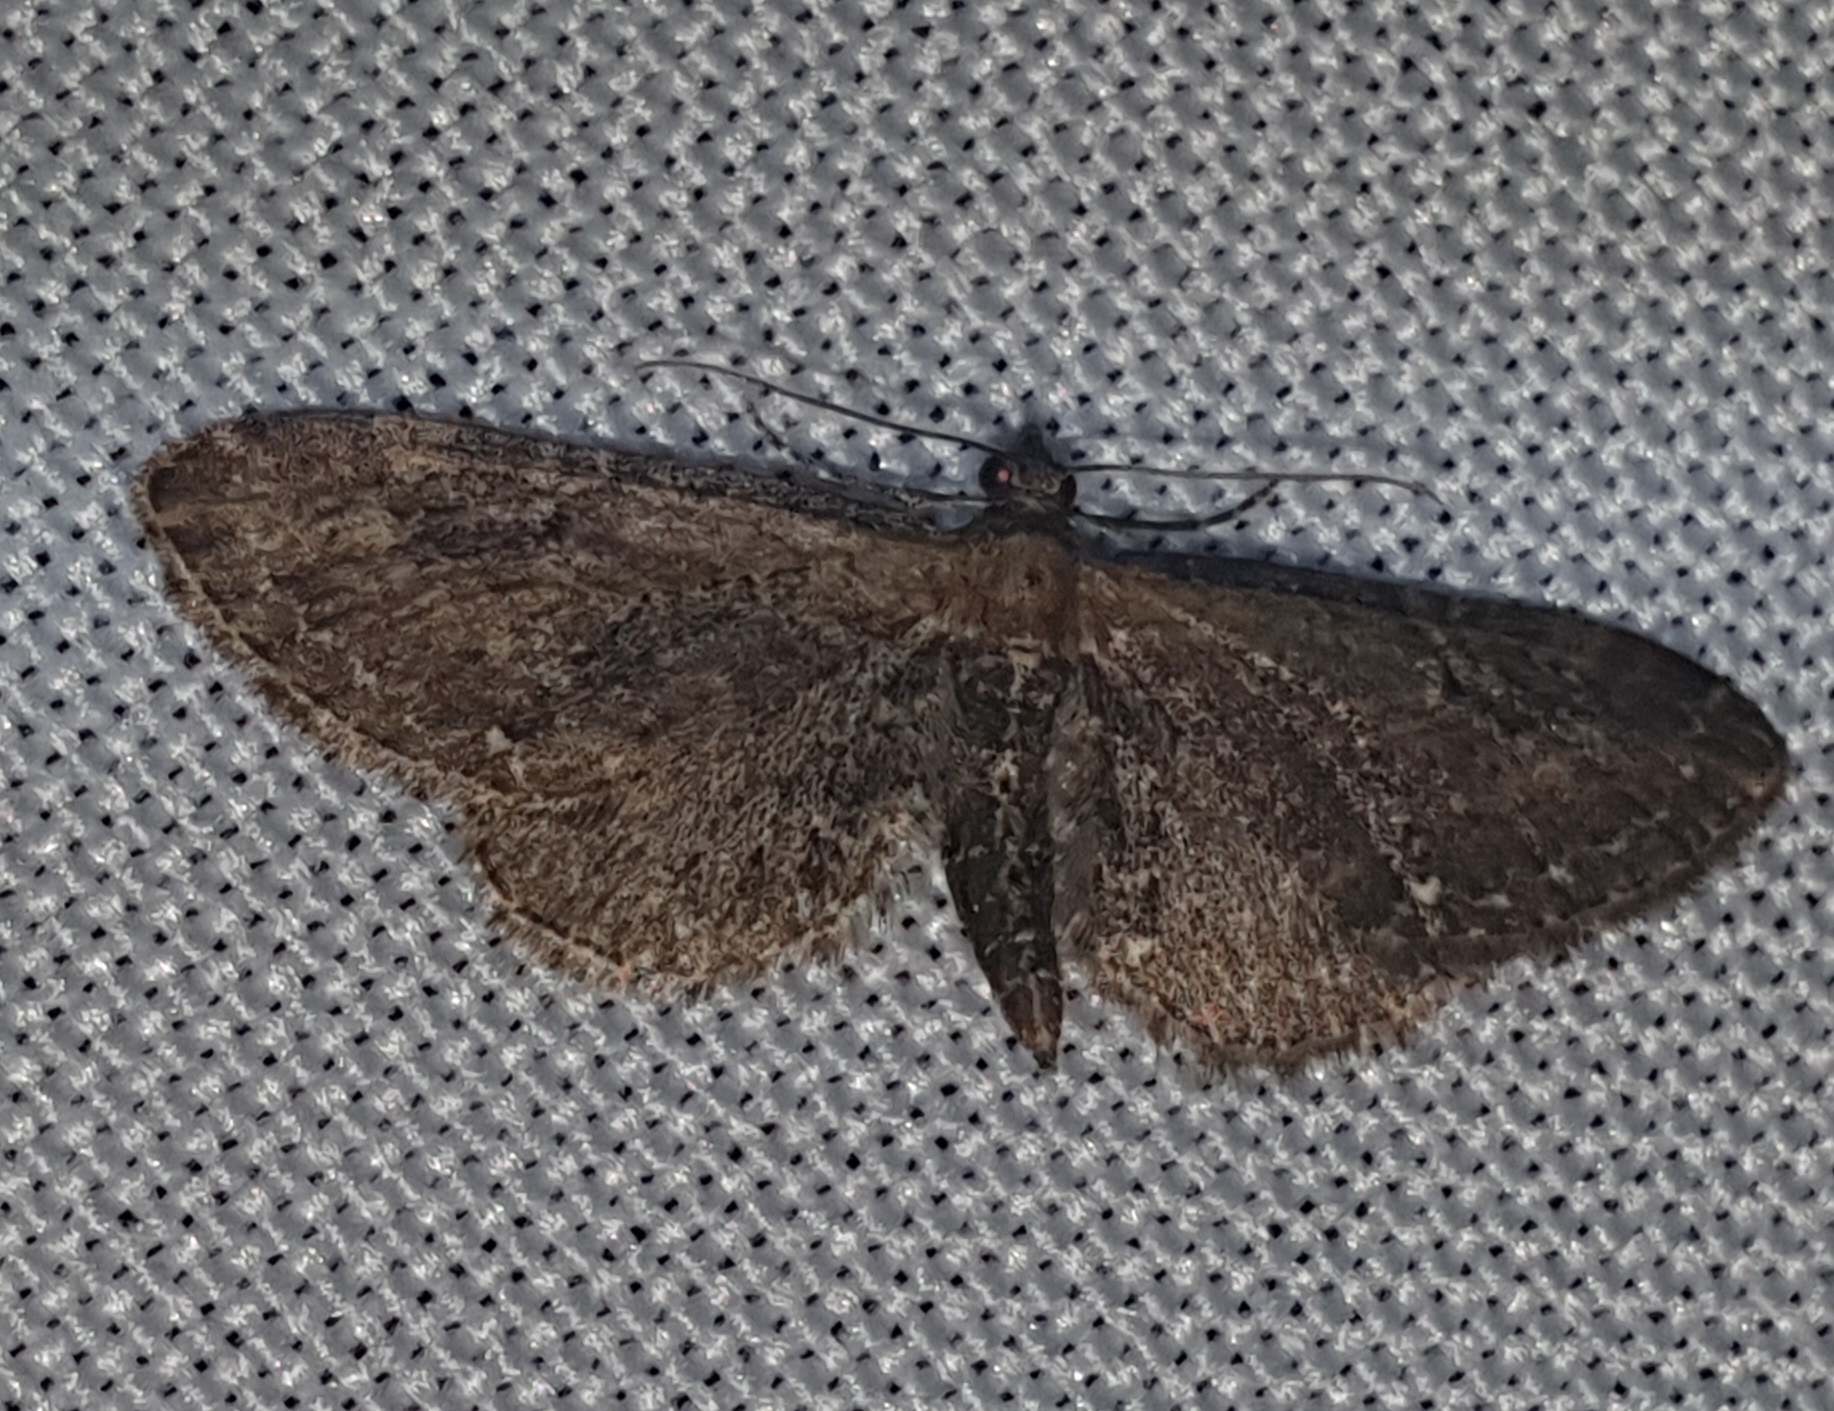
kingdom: Animalia
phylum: Arthropoda
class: Insecta
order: Lepidoptera
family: Geometridae
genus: Eupithecia
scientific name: Eupithecia vulgata
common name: Common pug
